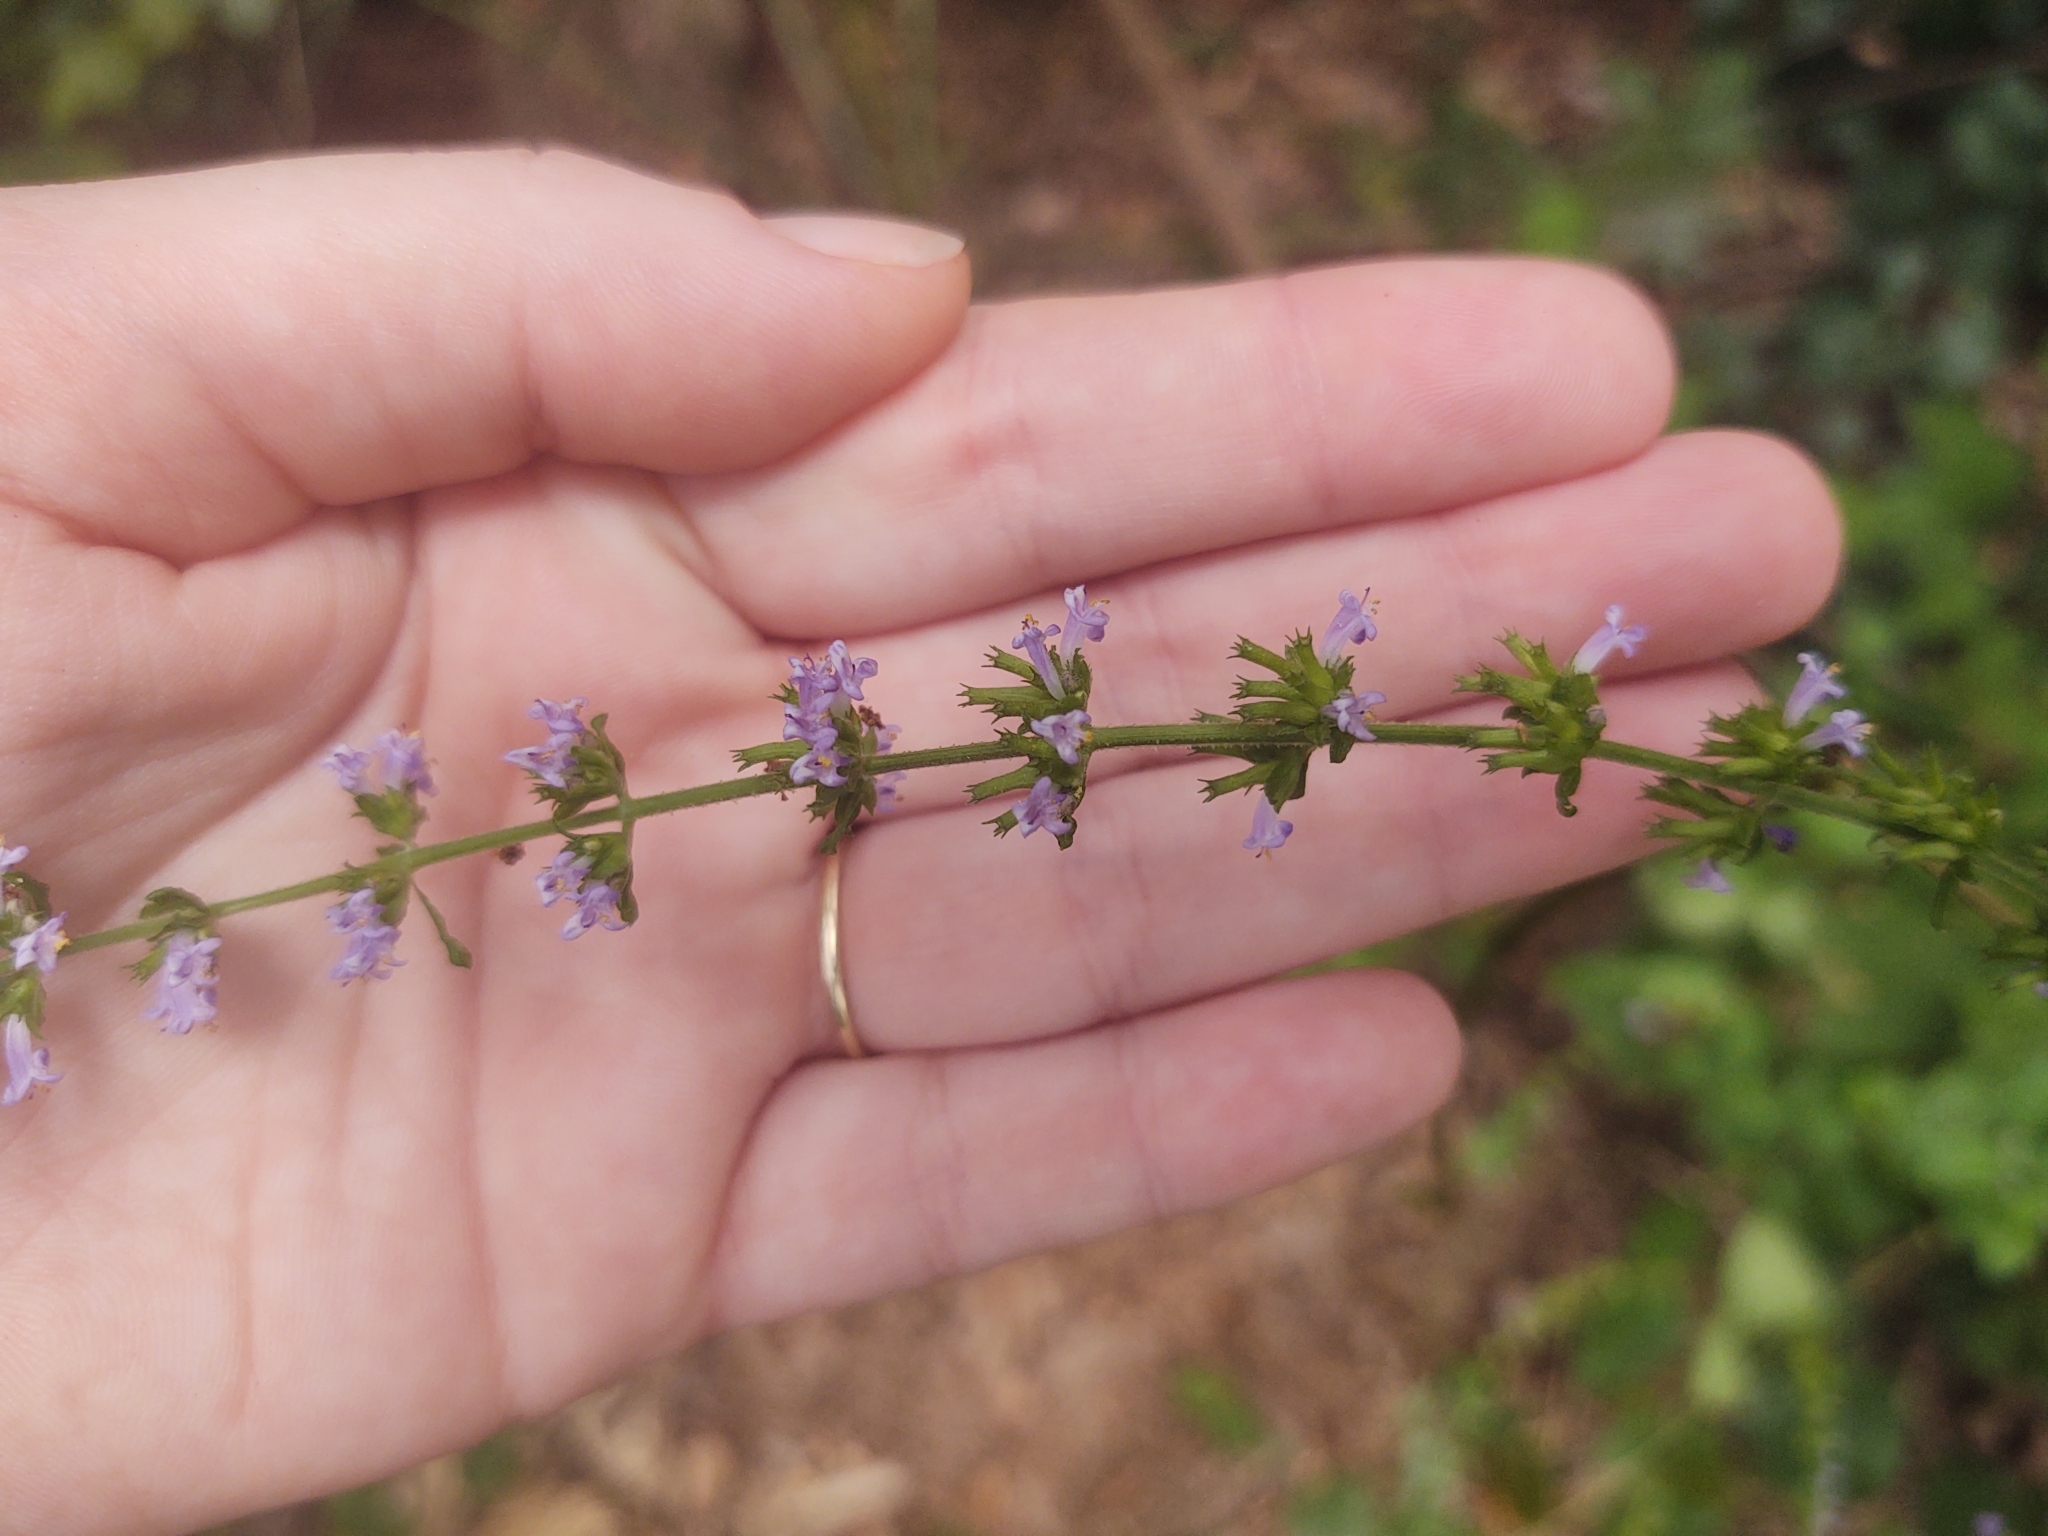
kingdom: Plantae
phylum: Tracheophyta
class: Magnoliopsida
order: Lamiales
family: Lamiaceae
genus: Cantinoa
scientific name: Cantinoa mutabilis
